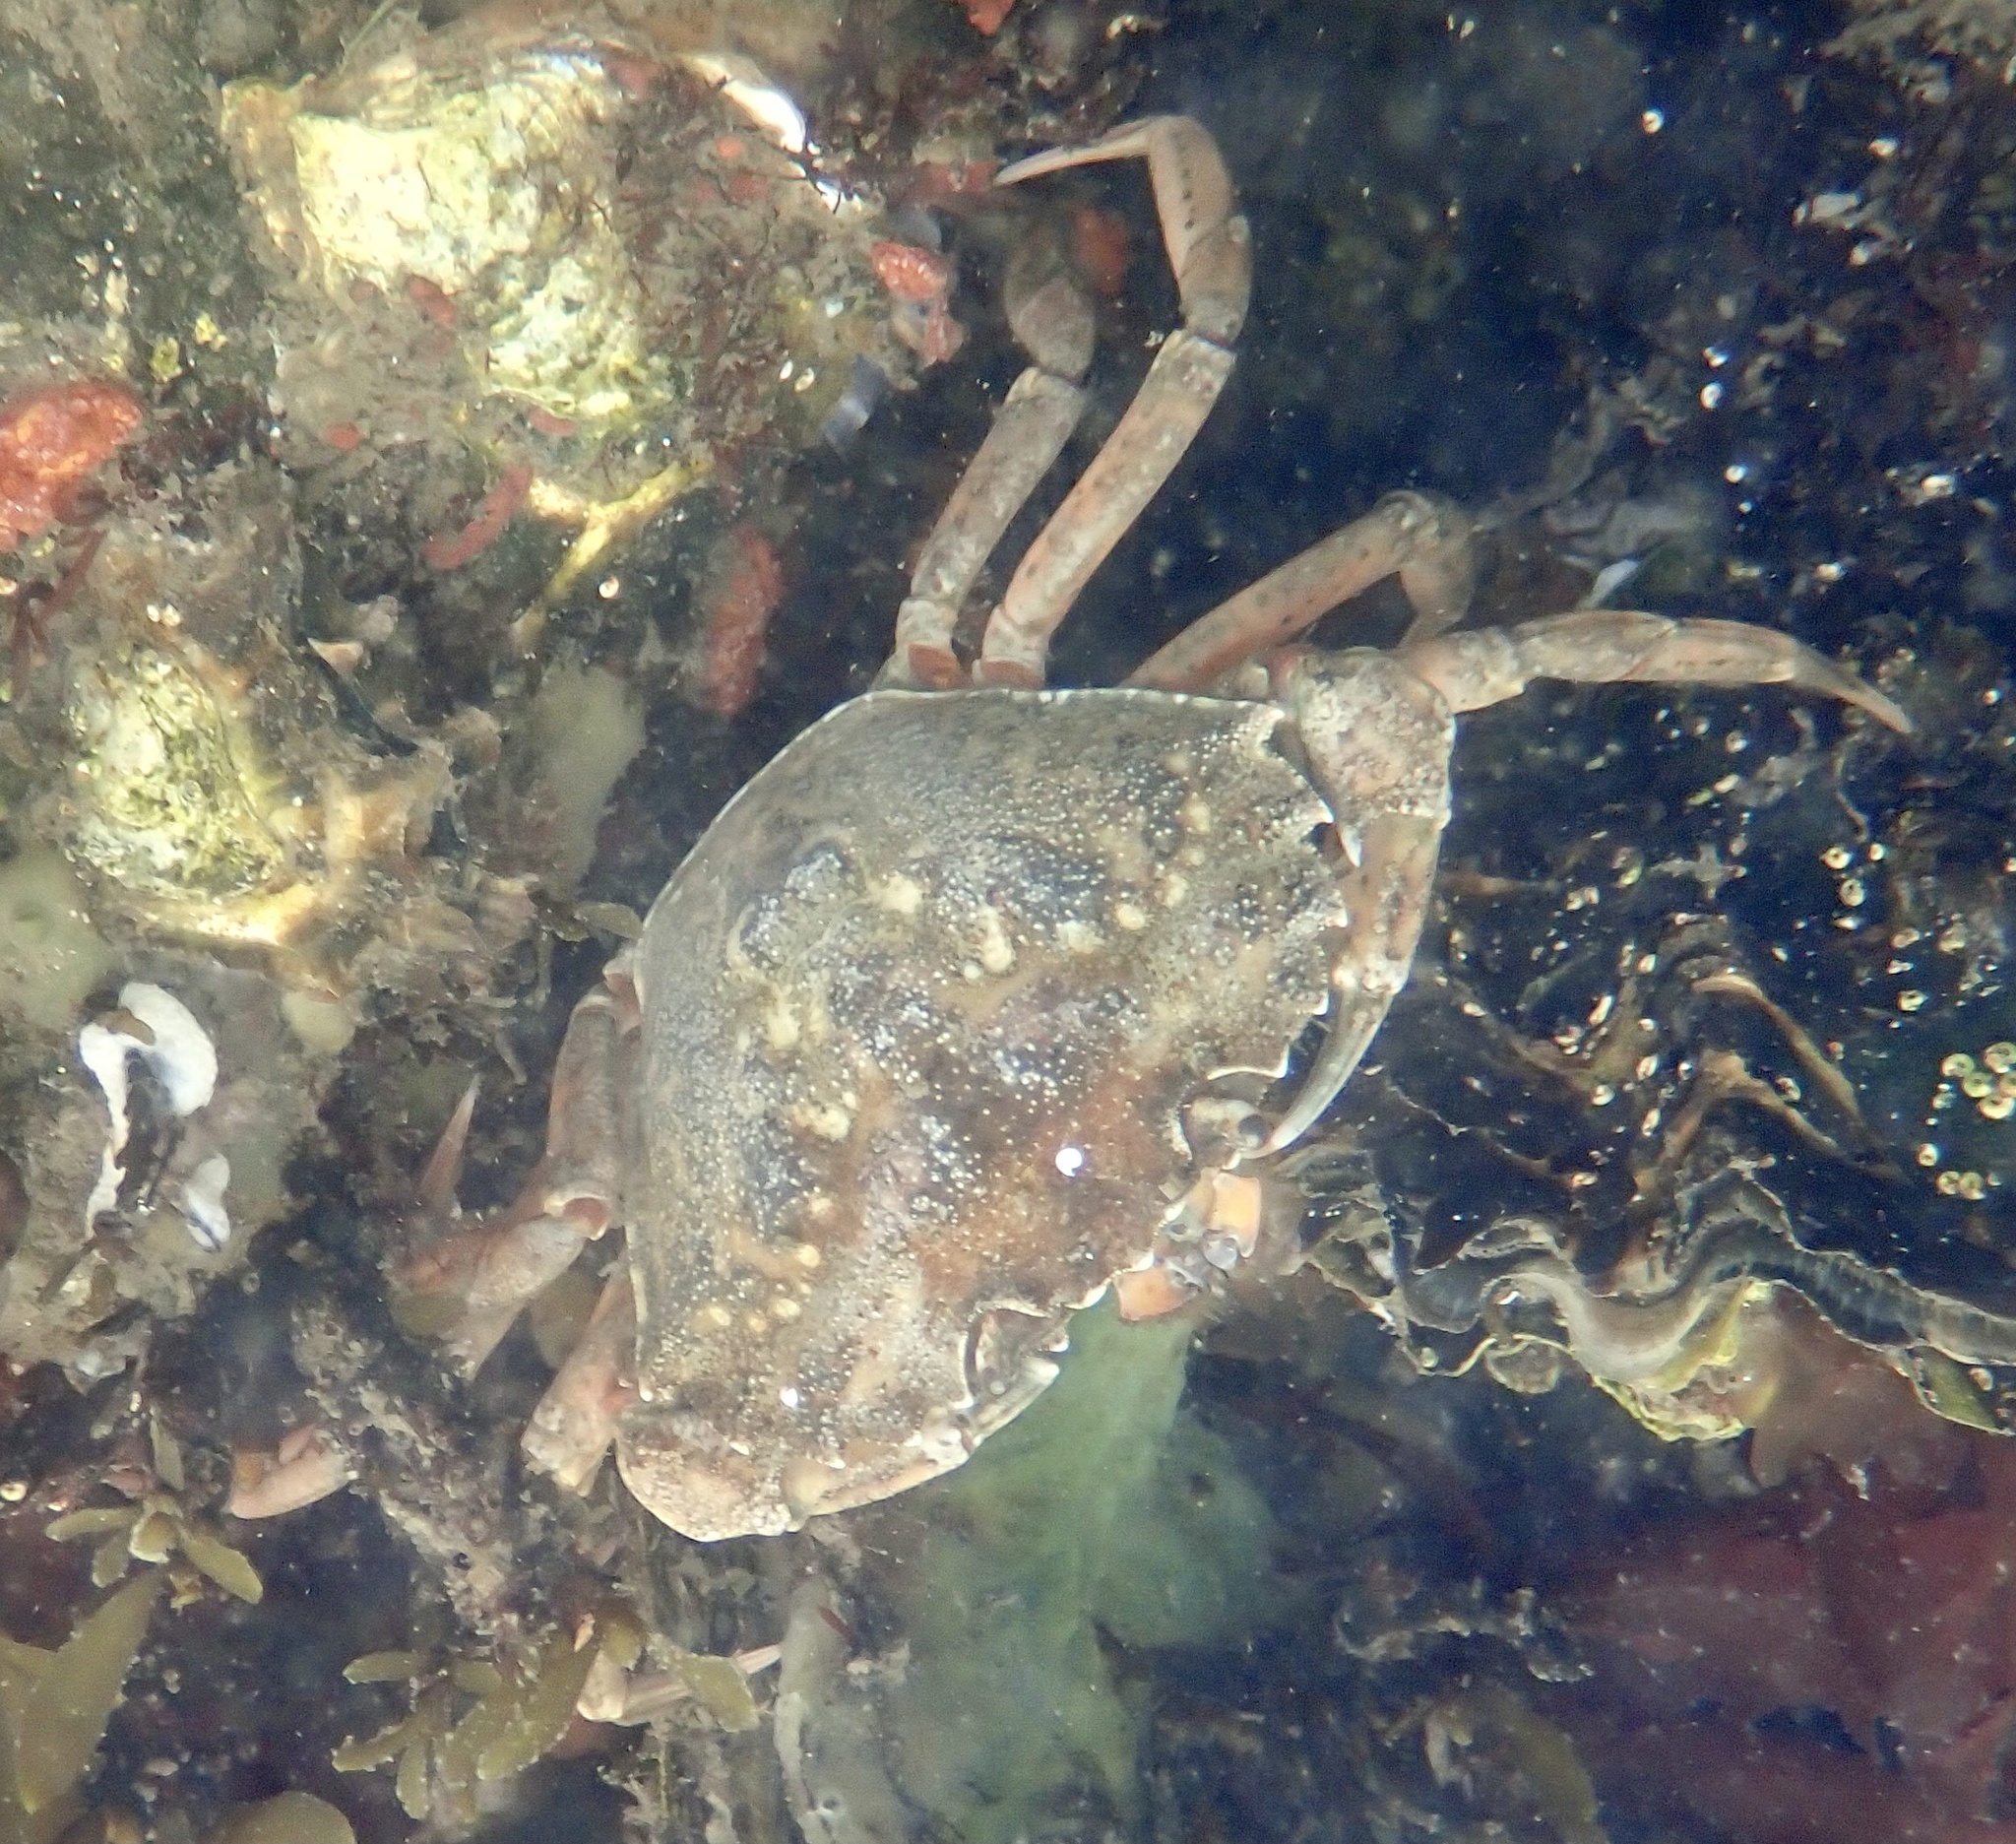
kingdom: Animalia
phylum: Arthropoda
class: Malacostraca
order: Decapoda
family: Carcinidae
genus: Carcinus
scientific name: Carcinus maenas
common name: European green crab
